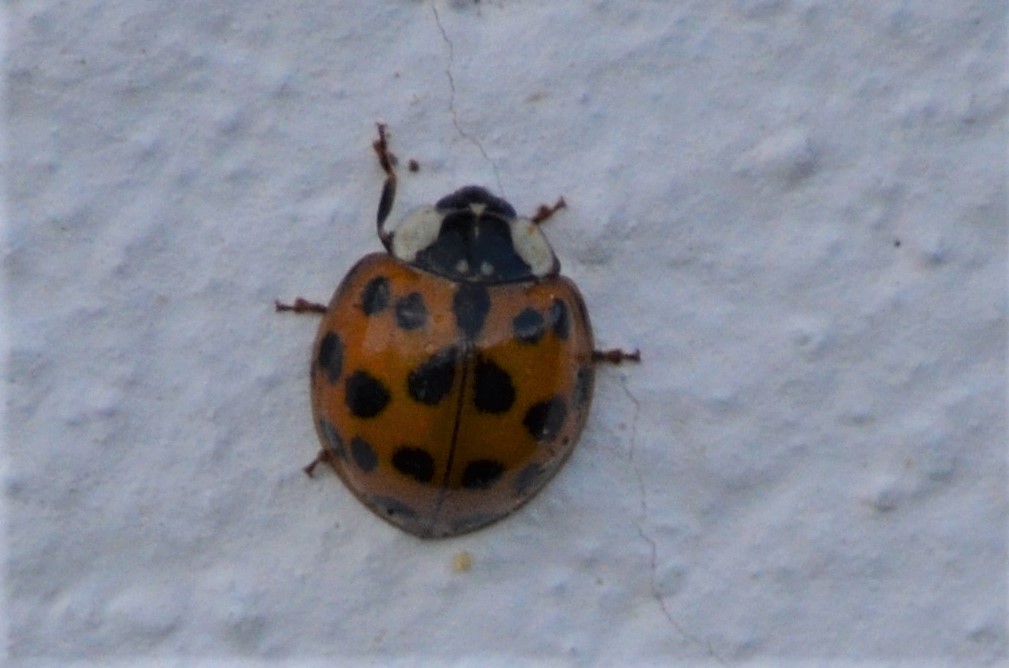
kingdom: Animalia
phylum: Arthropoda
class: Insecta
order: Coleoptera
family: Coccinellidae
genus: Harmonia
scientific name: Harmonia axyridis
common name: Harlequin ladybird
